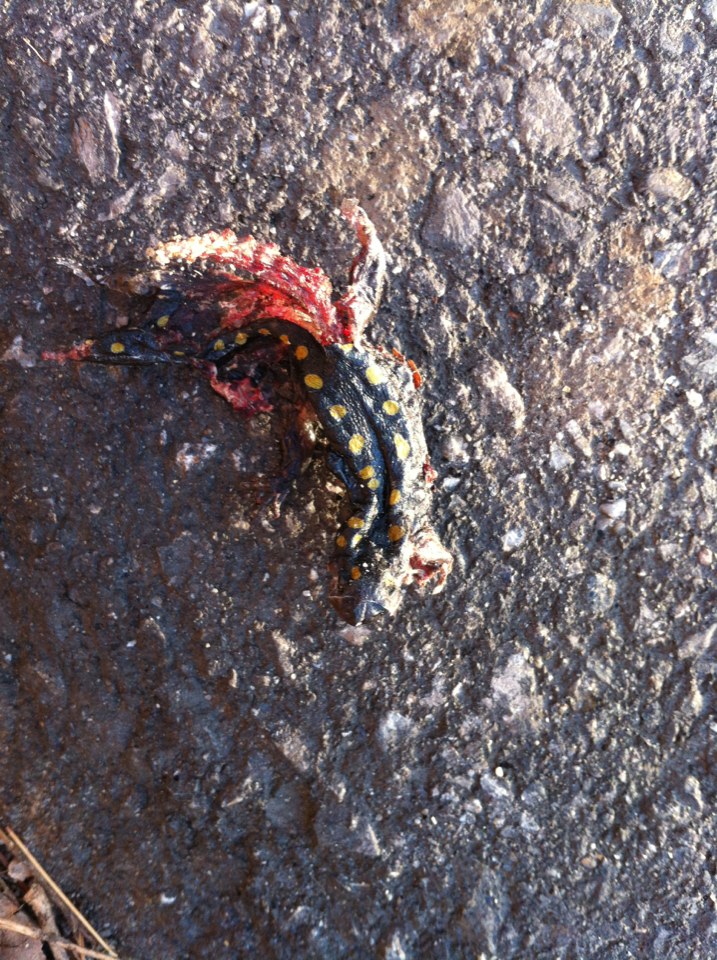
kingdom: Animalia
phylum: Chordata
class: Amphibia
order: Caudata
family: Ambystomatidae
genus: Ambystoma
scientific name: Ambystoma maculatum
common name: Spotted salamander
